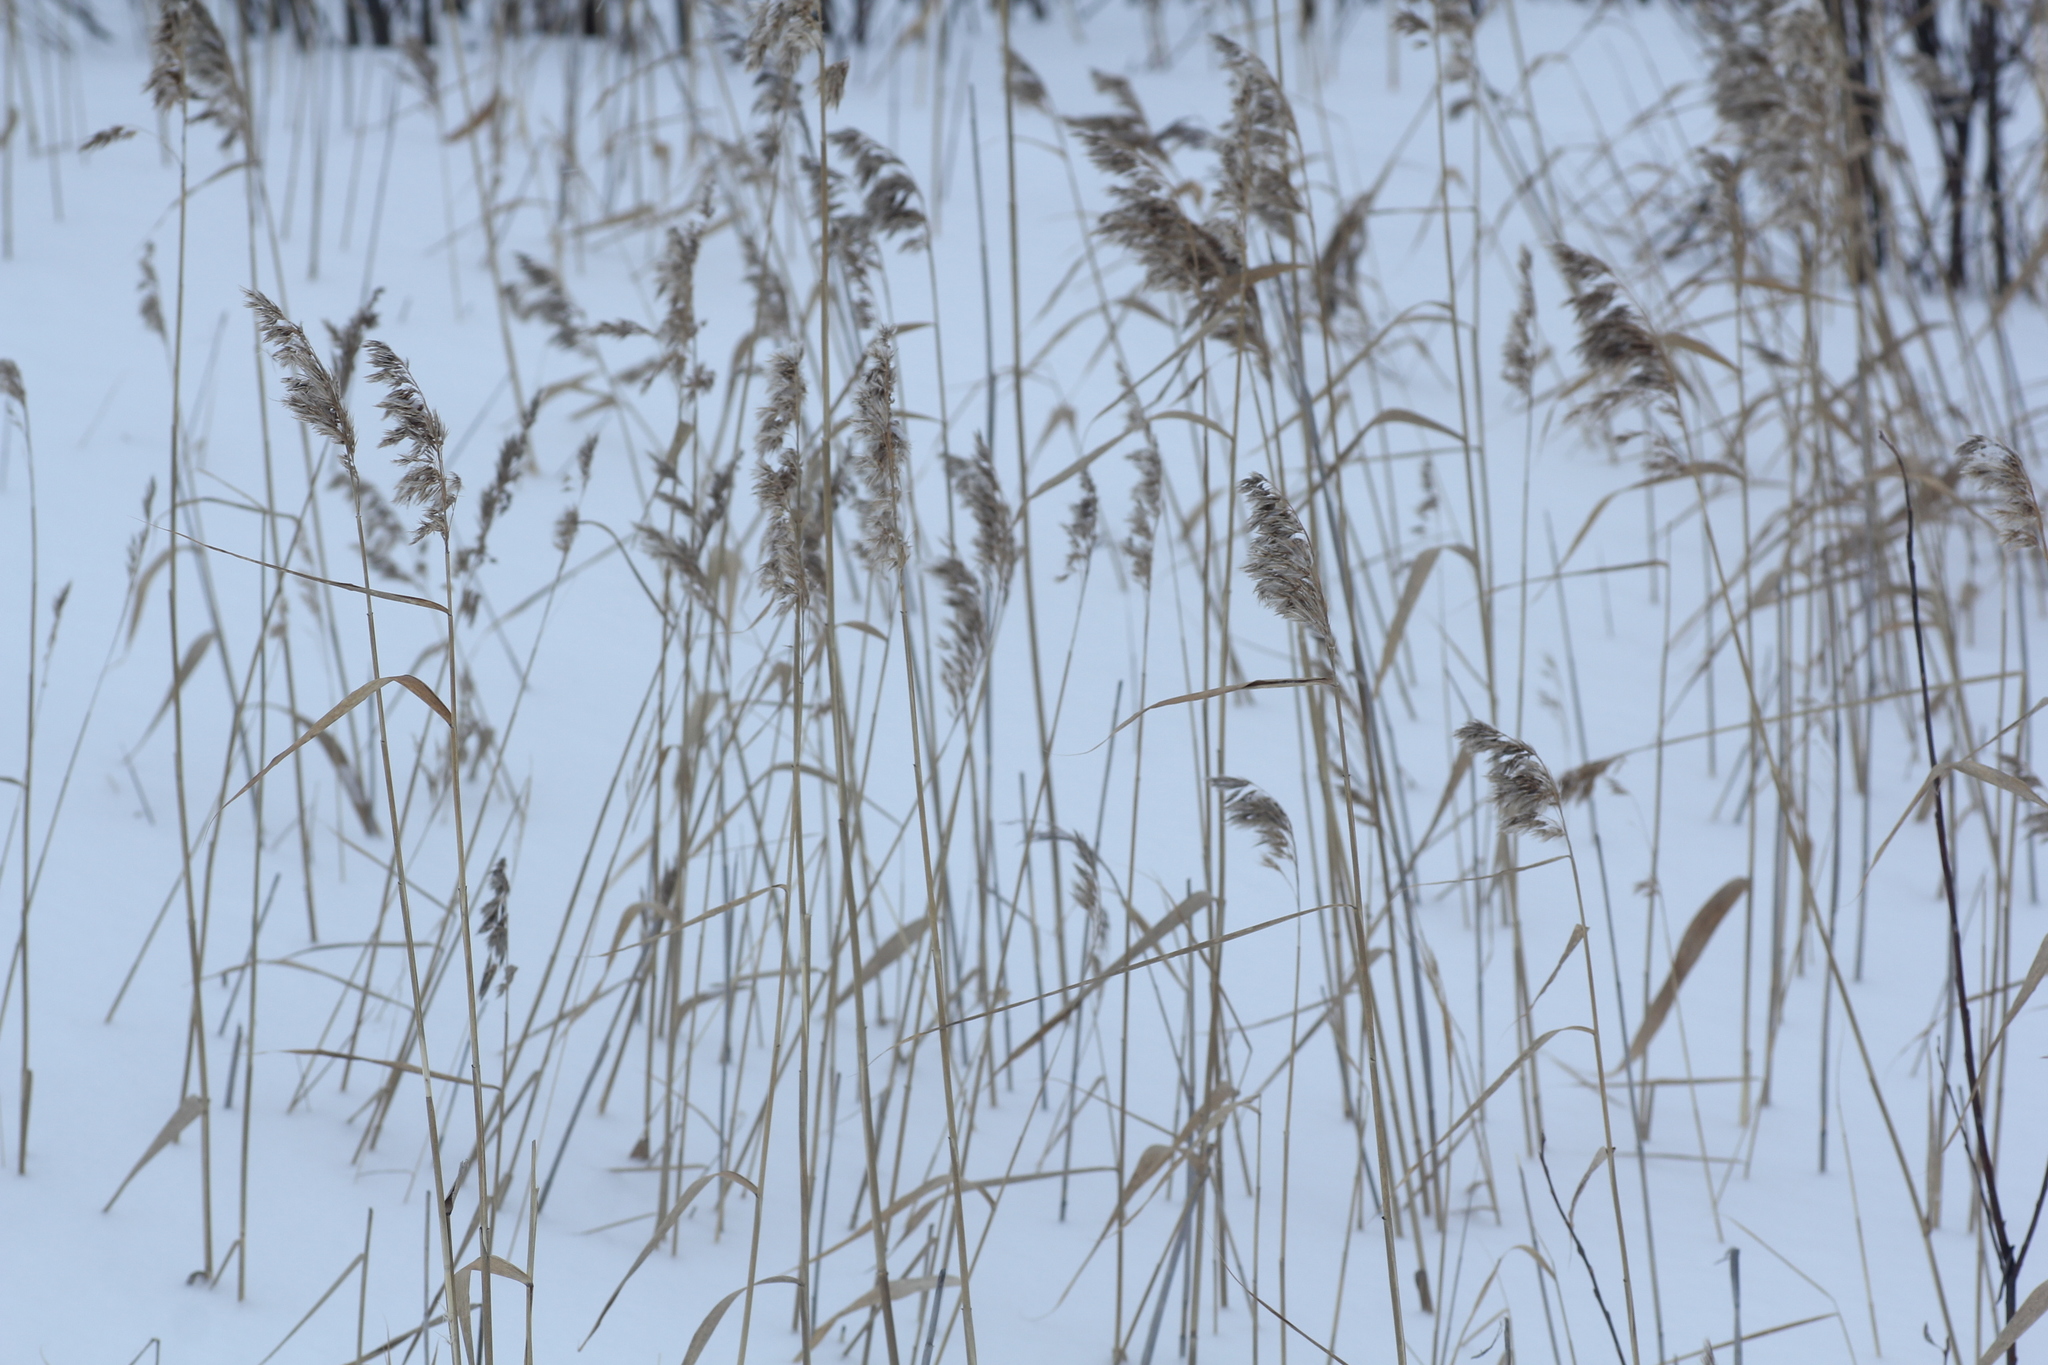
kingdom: Plantae
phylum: Tracheophyta
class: Liliopsida
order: Poales
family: Poaceae
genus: Phragmites
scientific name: Phragmites australis
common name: Common reed
